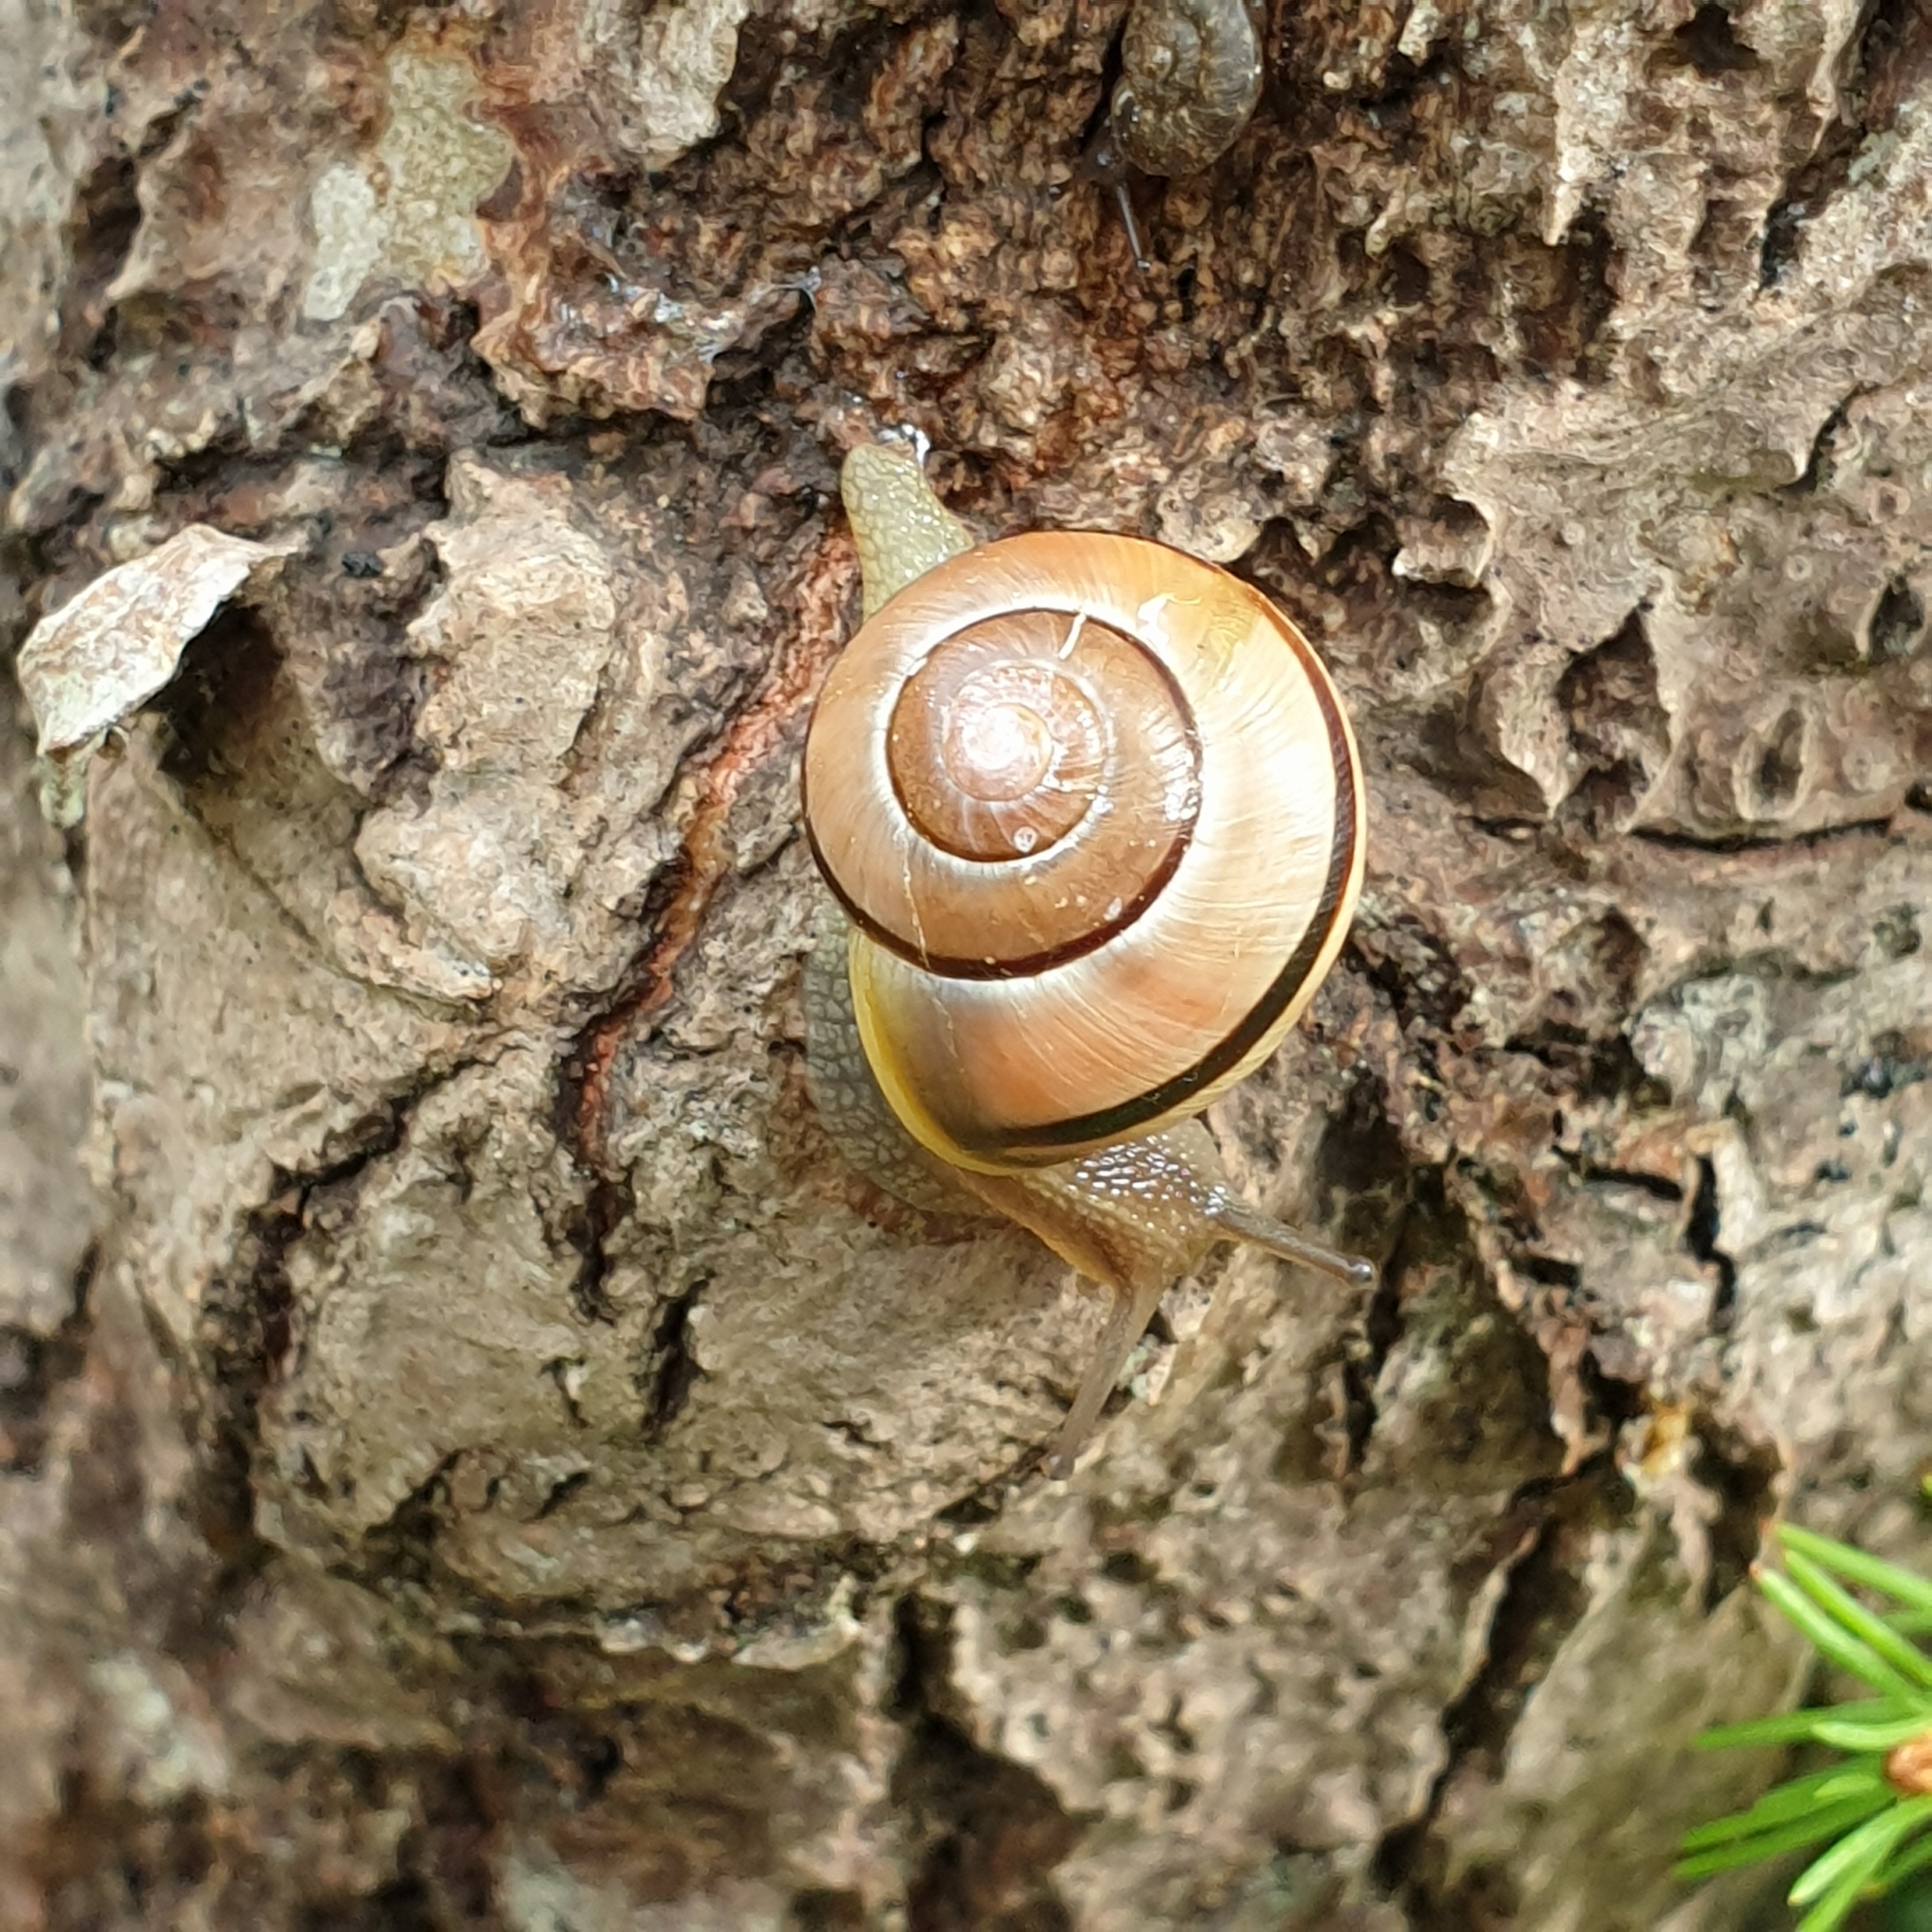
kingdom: Animalia
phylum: Mollusca
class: Gastropoda
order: Stylommatophora
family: Helicidae
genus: Cepaea
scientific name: Cepaea
